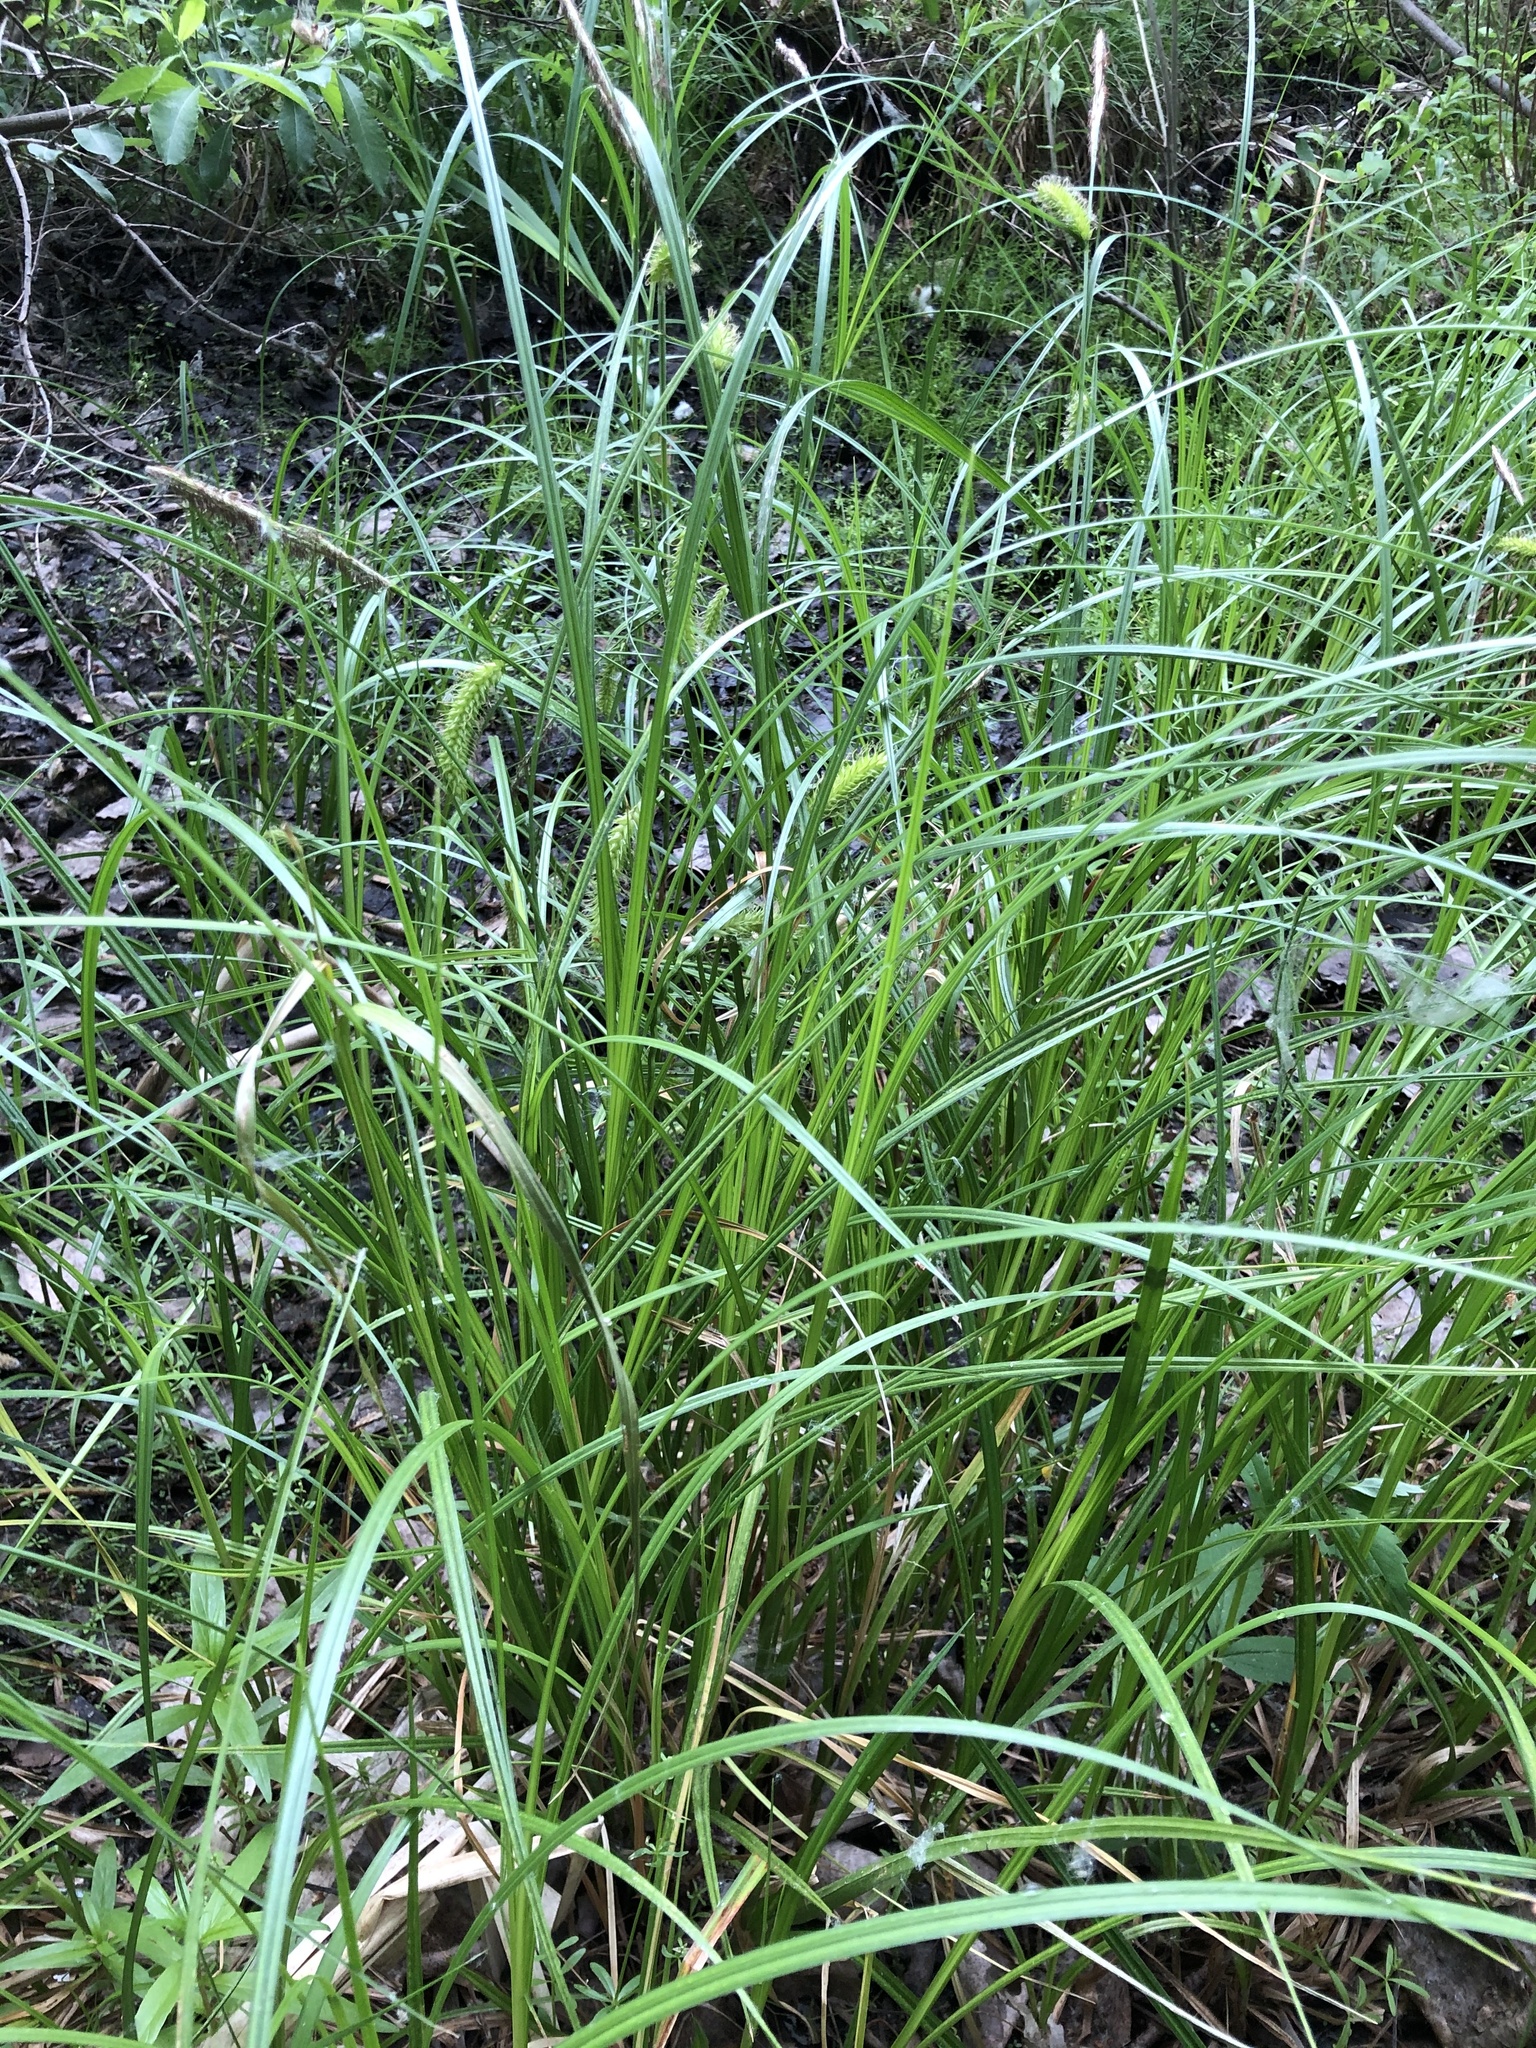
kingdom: Plantae
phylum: Tracheophyta
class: Liliopsida
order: Poales
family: Cyperaceae
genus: Carex
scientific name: Carex vesicaria
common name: Bladder-sedge
